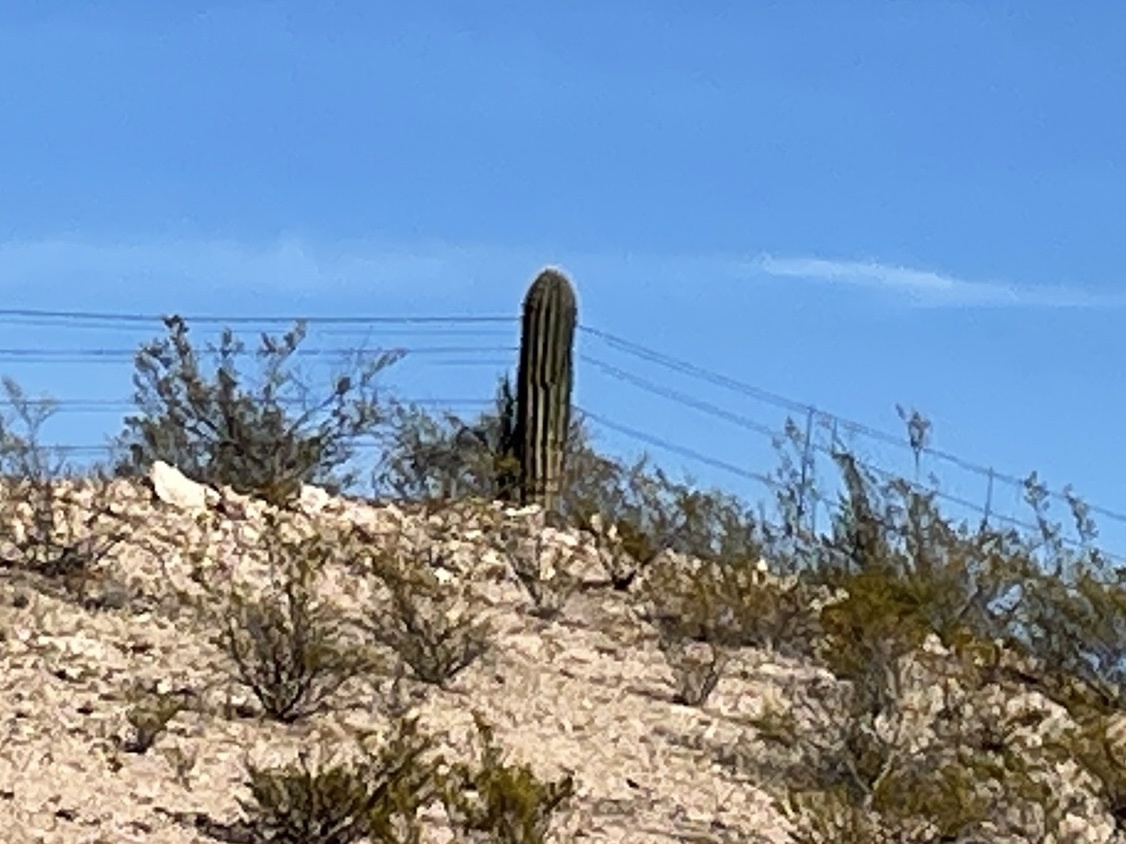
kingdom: Plantae
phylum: Tracheophyta
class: Magnoliopsida
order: Caryophyllales
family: Cactaceae
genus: Carnegiea
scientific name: Carnegiea gigantea
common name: Saguaro
